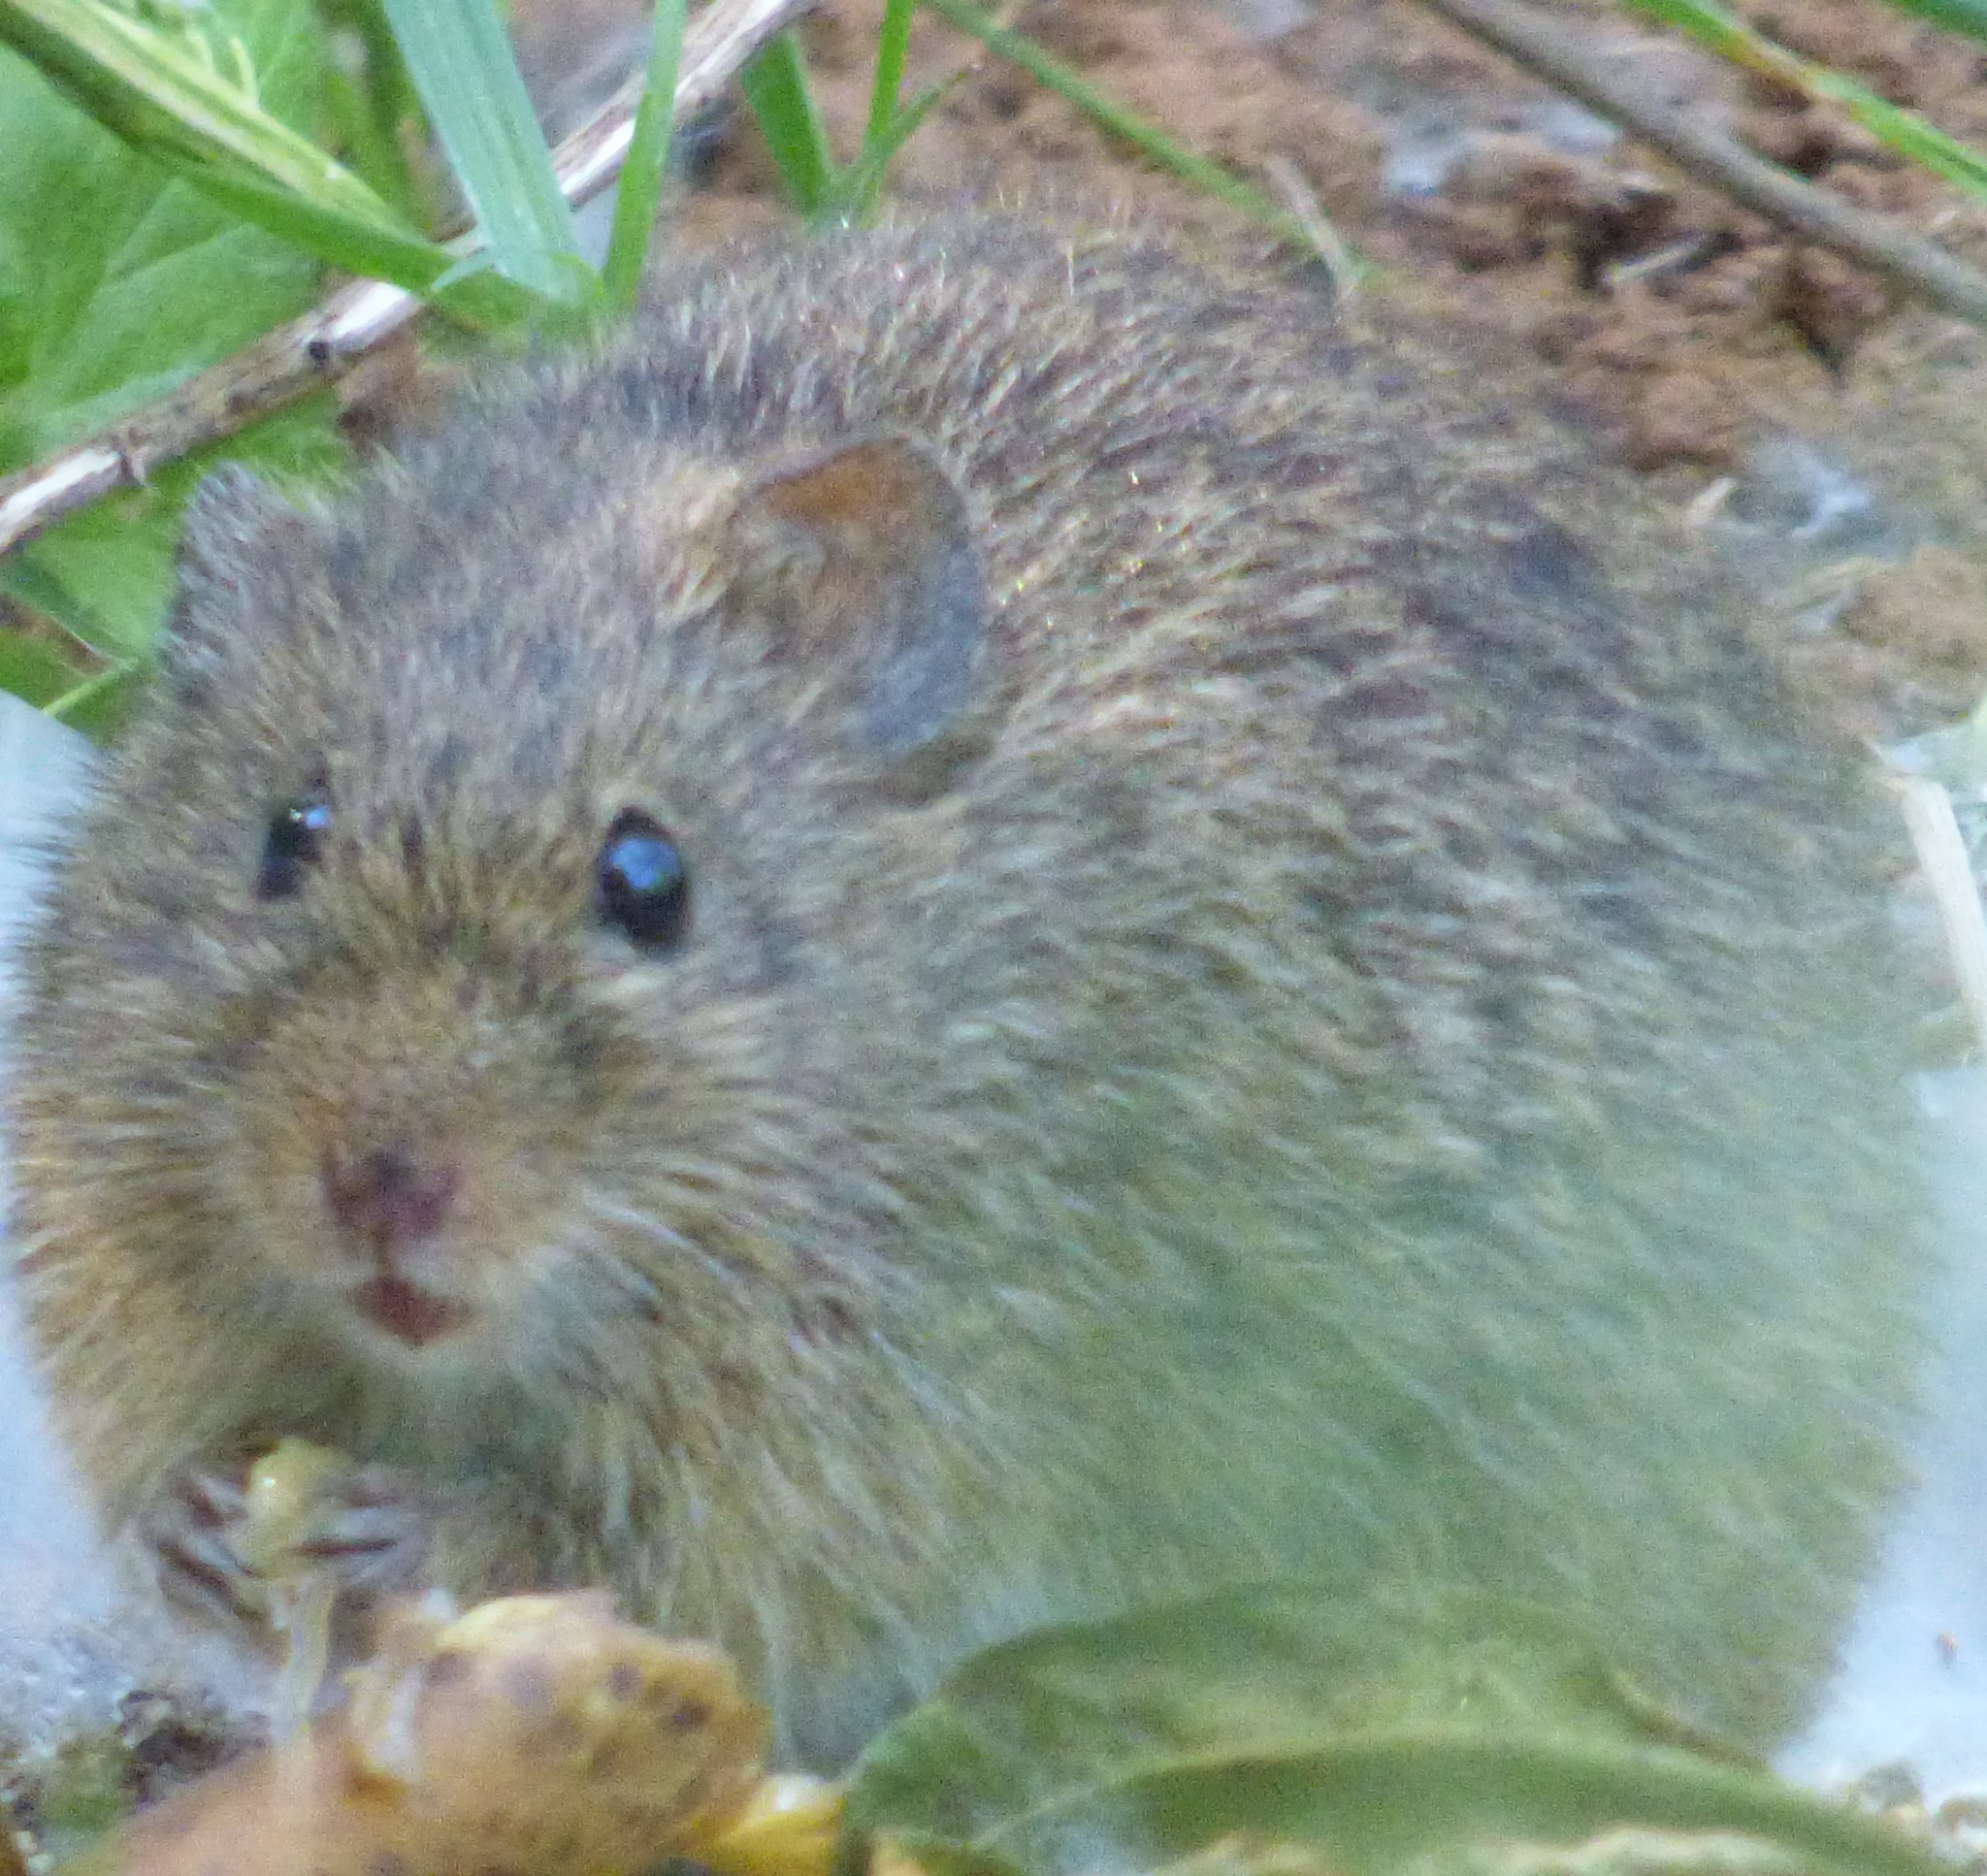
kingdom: Animalia
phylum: Chordata
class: Mammalia
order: Rodentia
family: Cricetidae
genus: Sigmodon
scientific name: Sigmodon hispidus
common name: Hispid cotton rat
